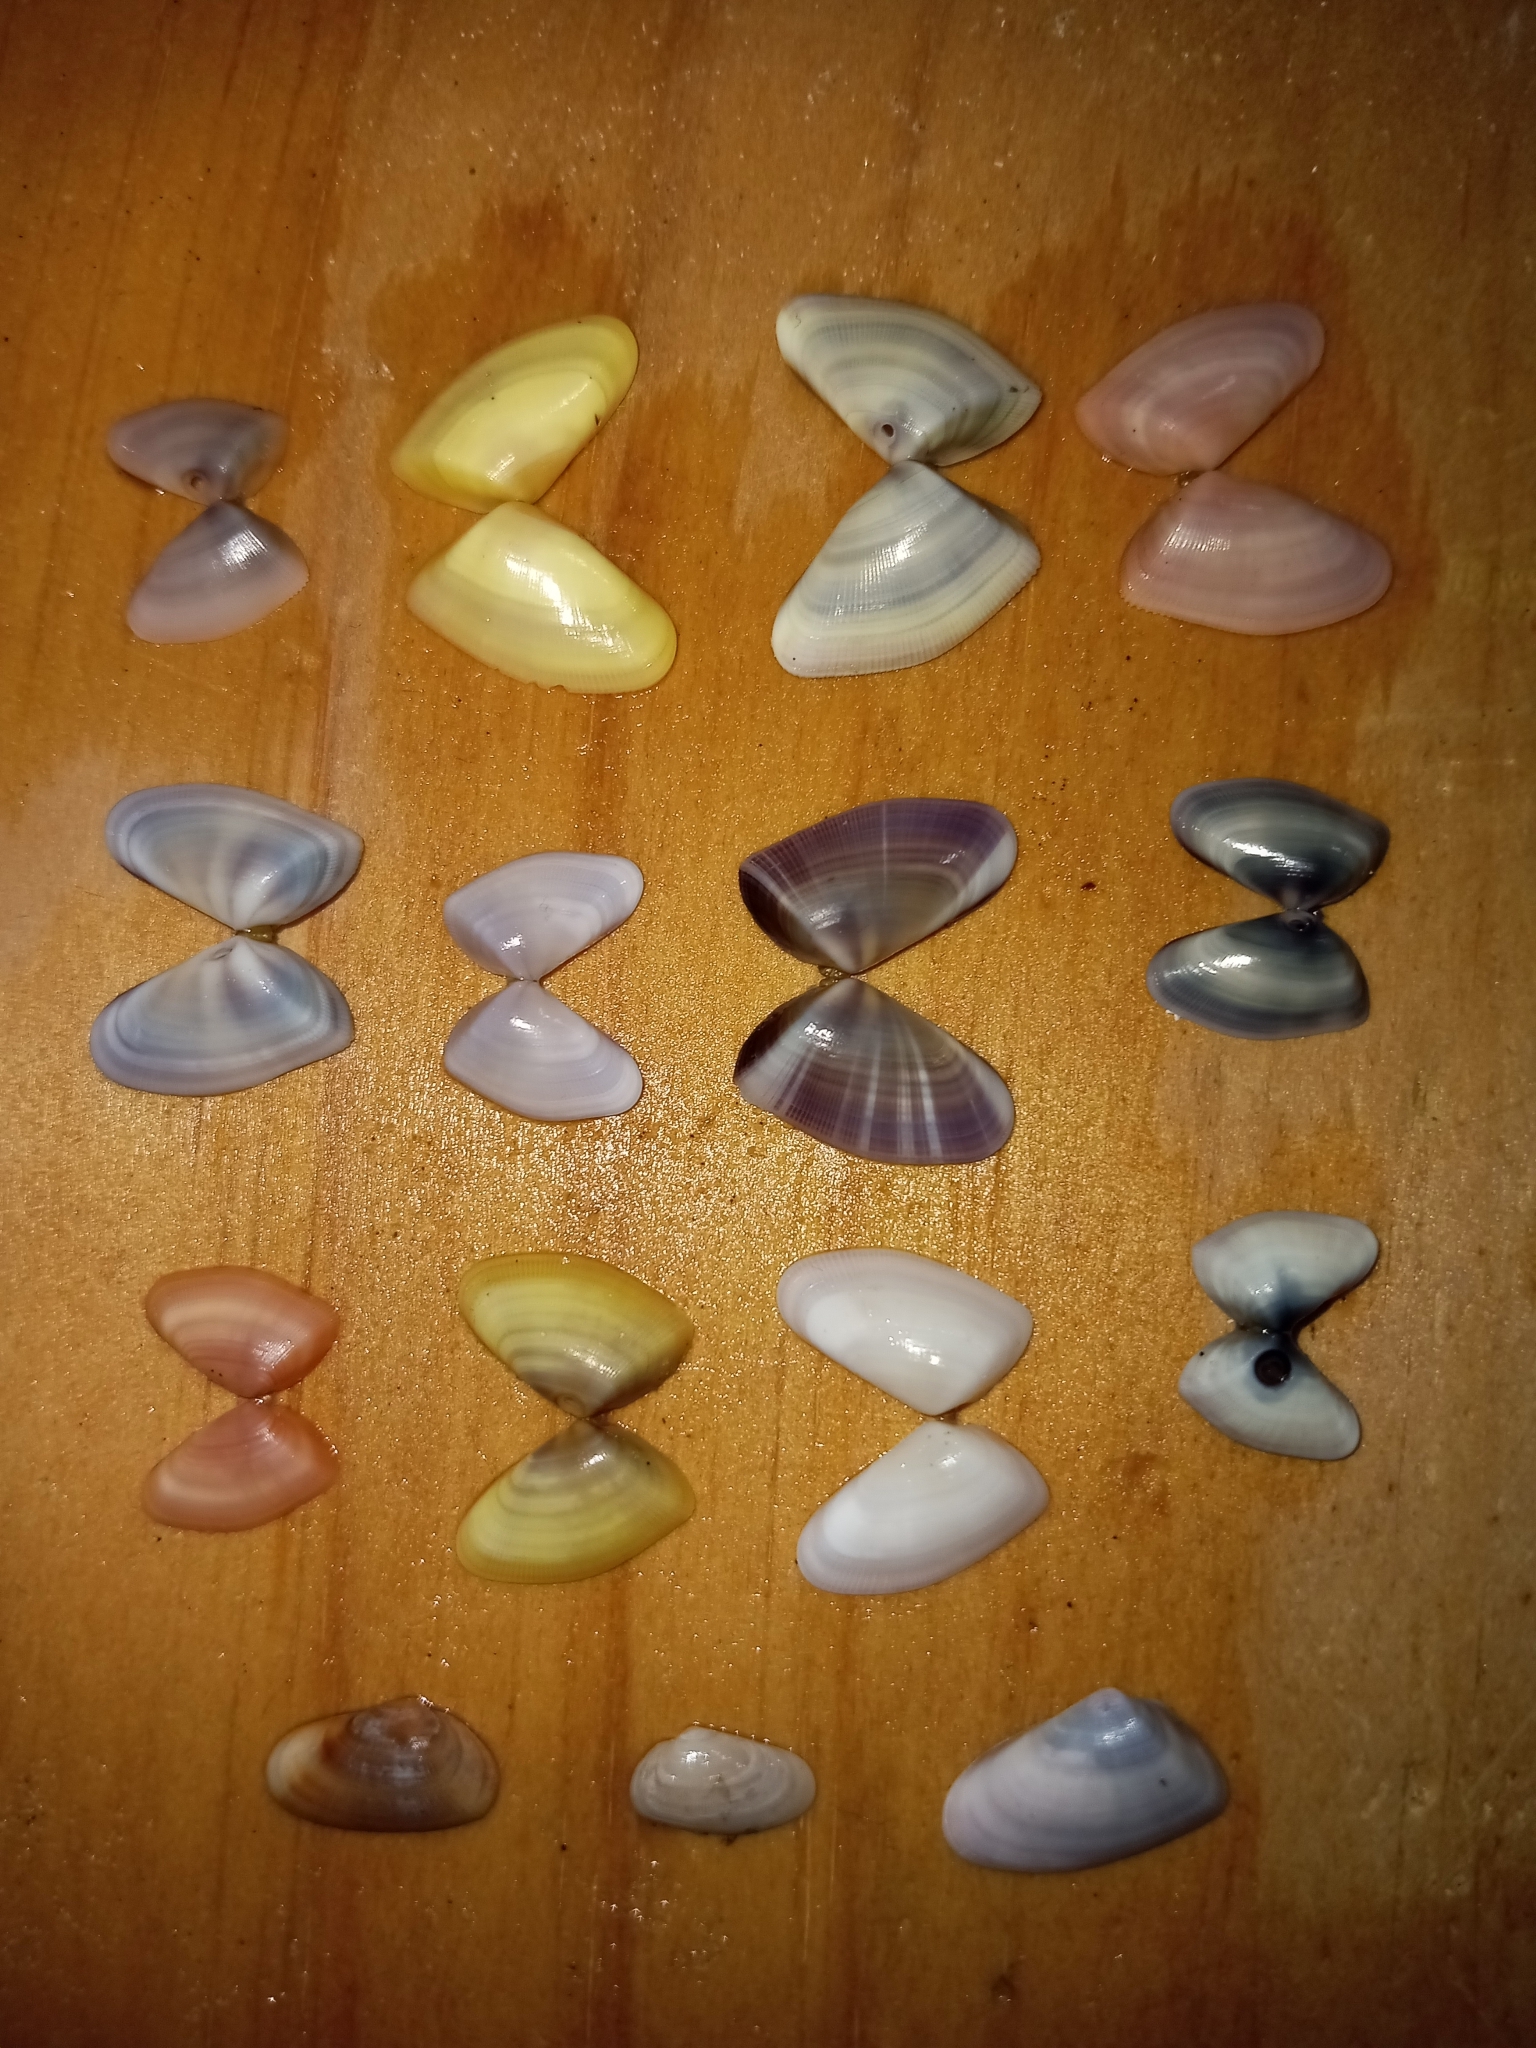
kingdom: Animalia
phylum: Mollusca
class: Bivalvia
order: Cardiida
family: Donacidae
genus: Donax
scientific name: Donax variabilis
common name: Butterfly shell
